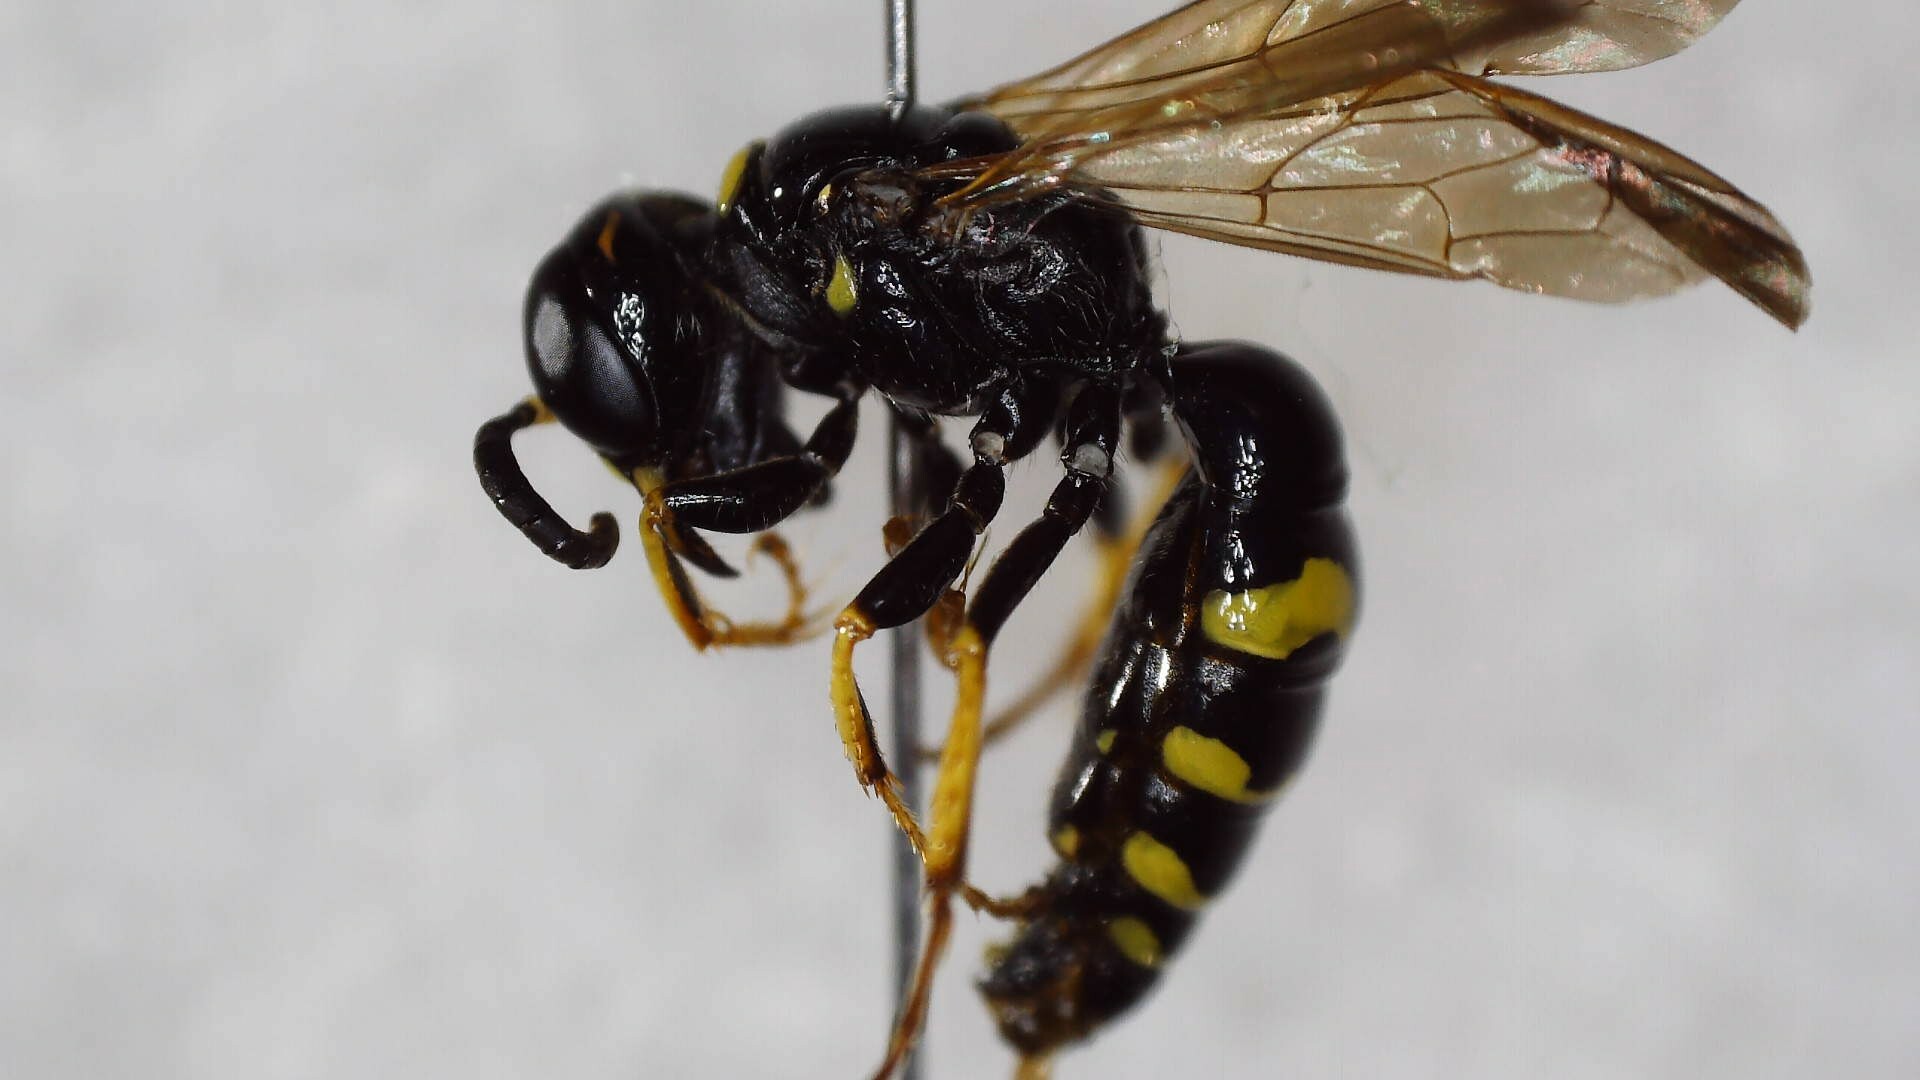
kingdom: Animalia
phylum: Arthropoda
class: Insecta
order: Hymenoptera
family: Crabronidae
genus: Philanthus
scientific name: Philanthus bilunatus
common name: Two moons beewolf
